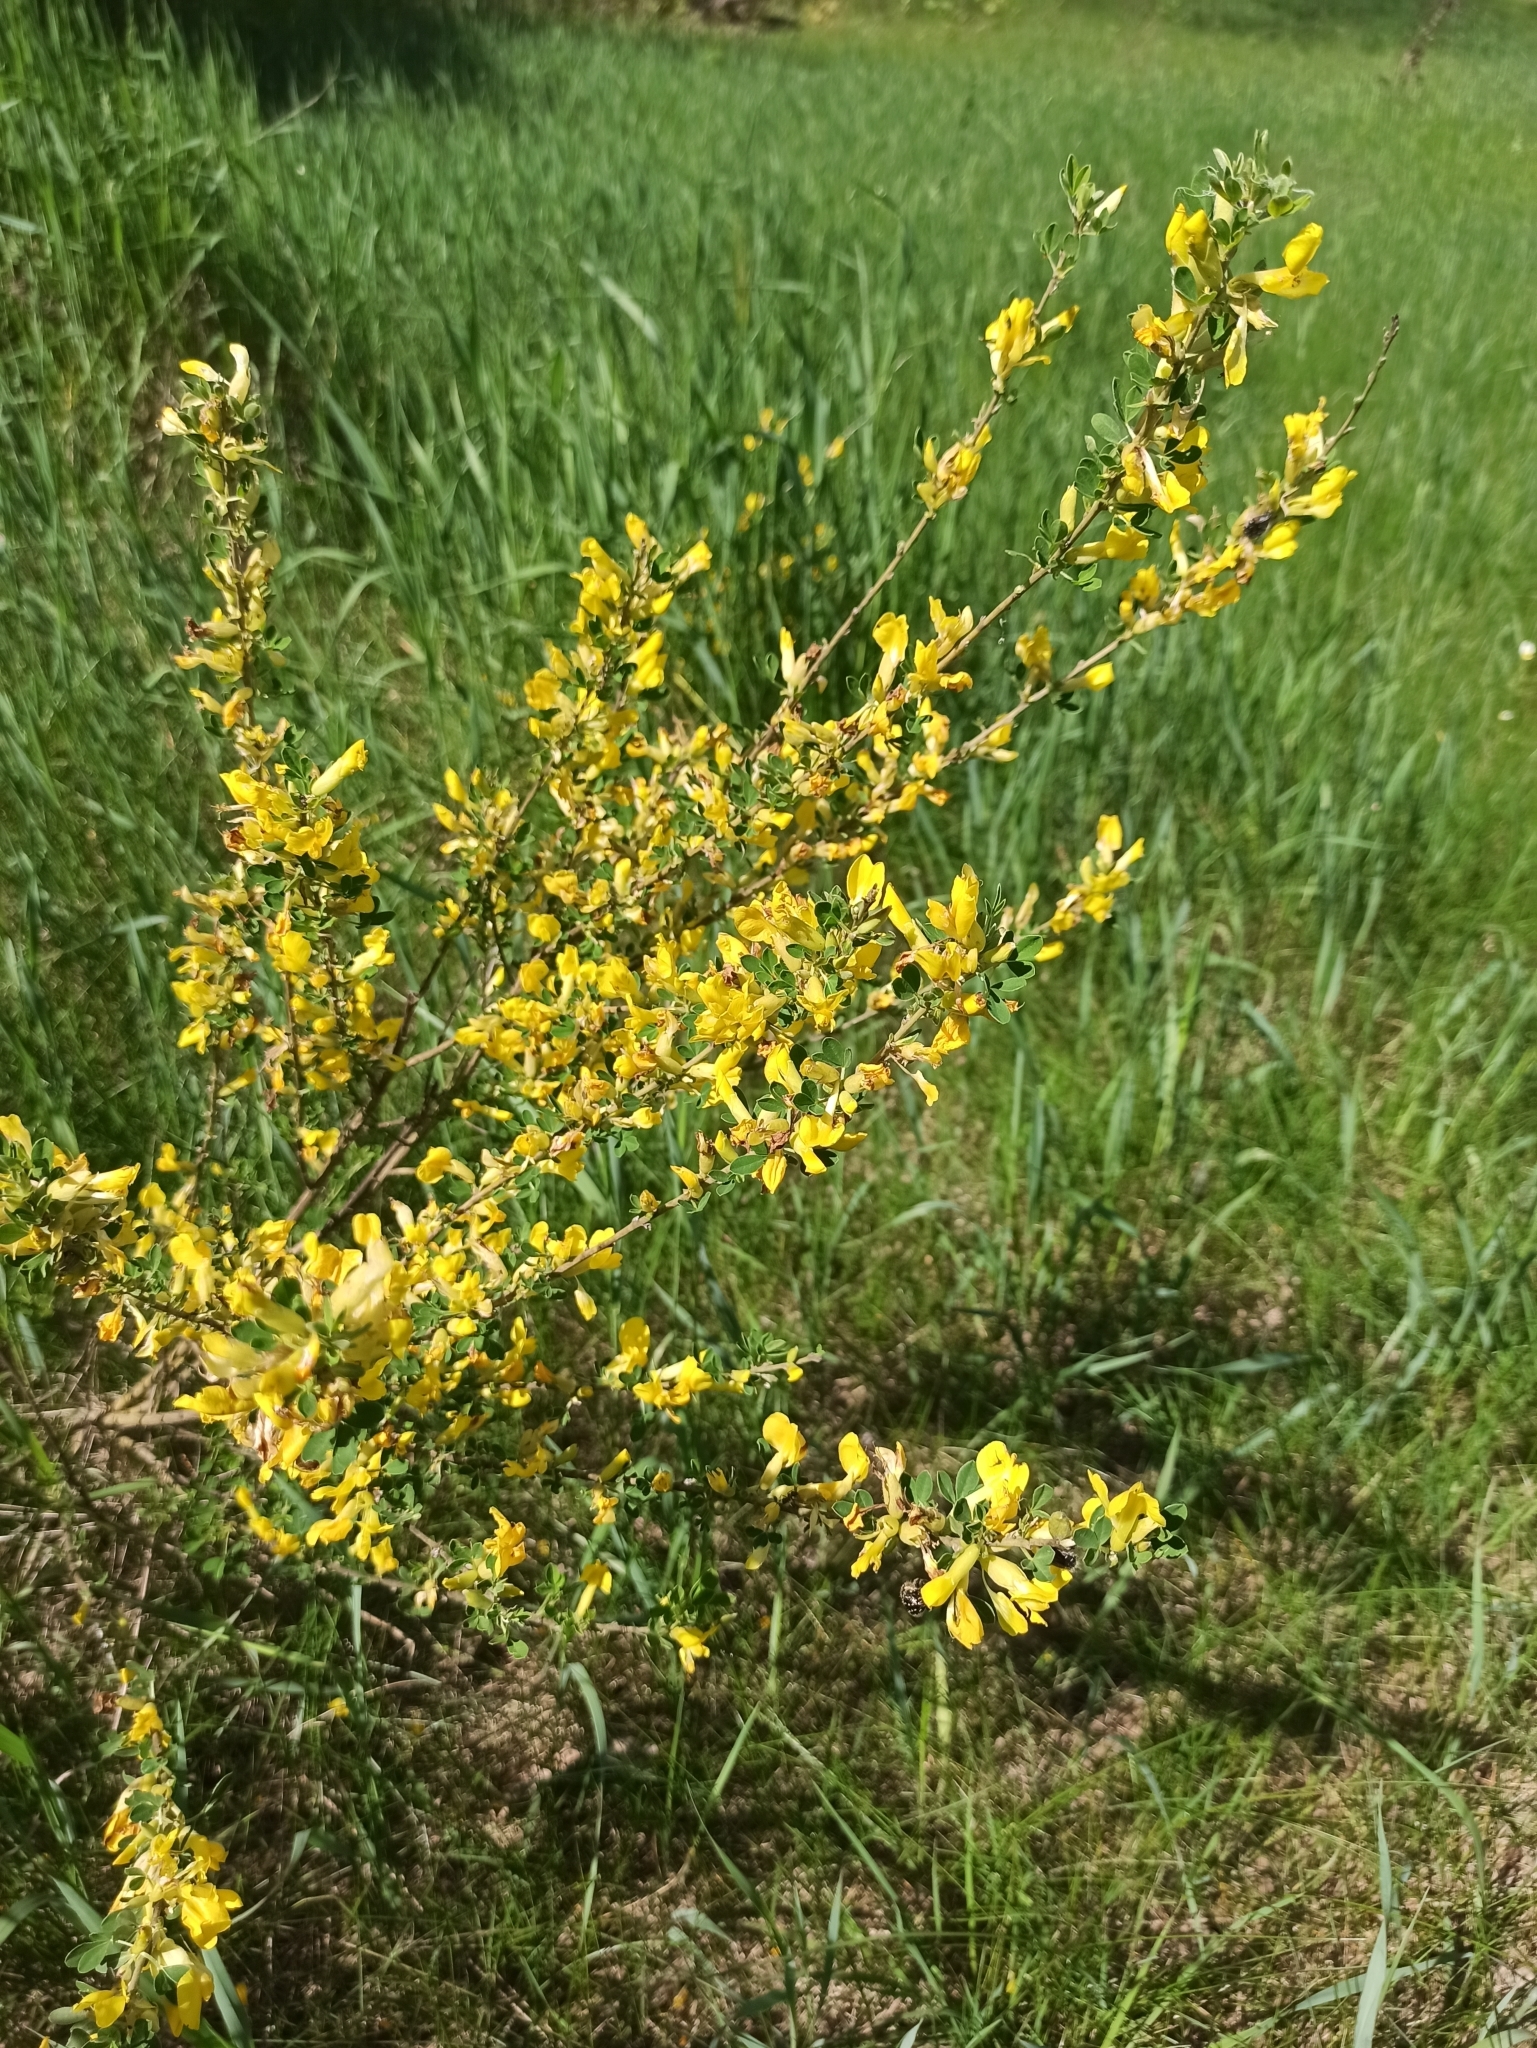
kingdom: Plantae
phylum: Tracheophyta
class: Magnoliopsida
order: Fabales
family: Fabaceae
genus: Chamaecytisus
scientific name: Chamaecytisus ruthenicus
